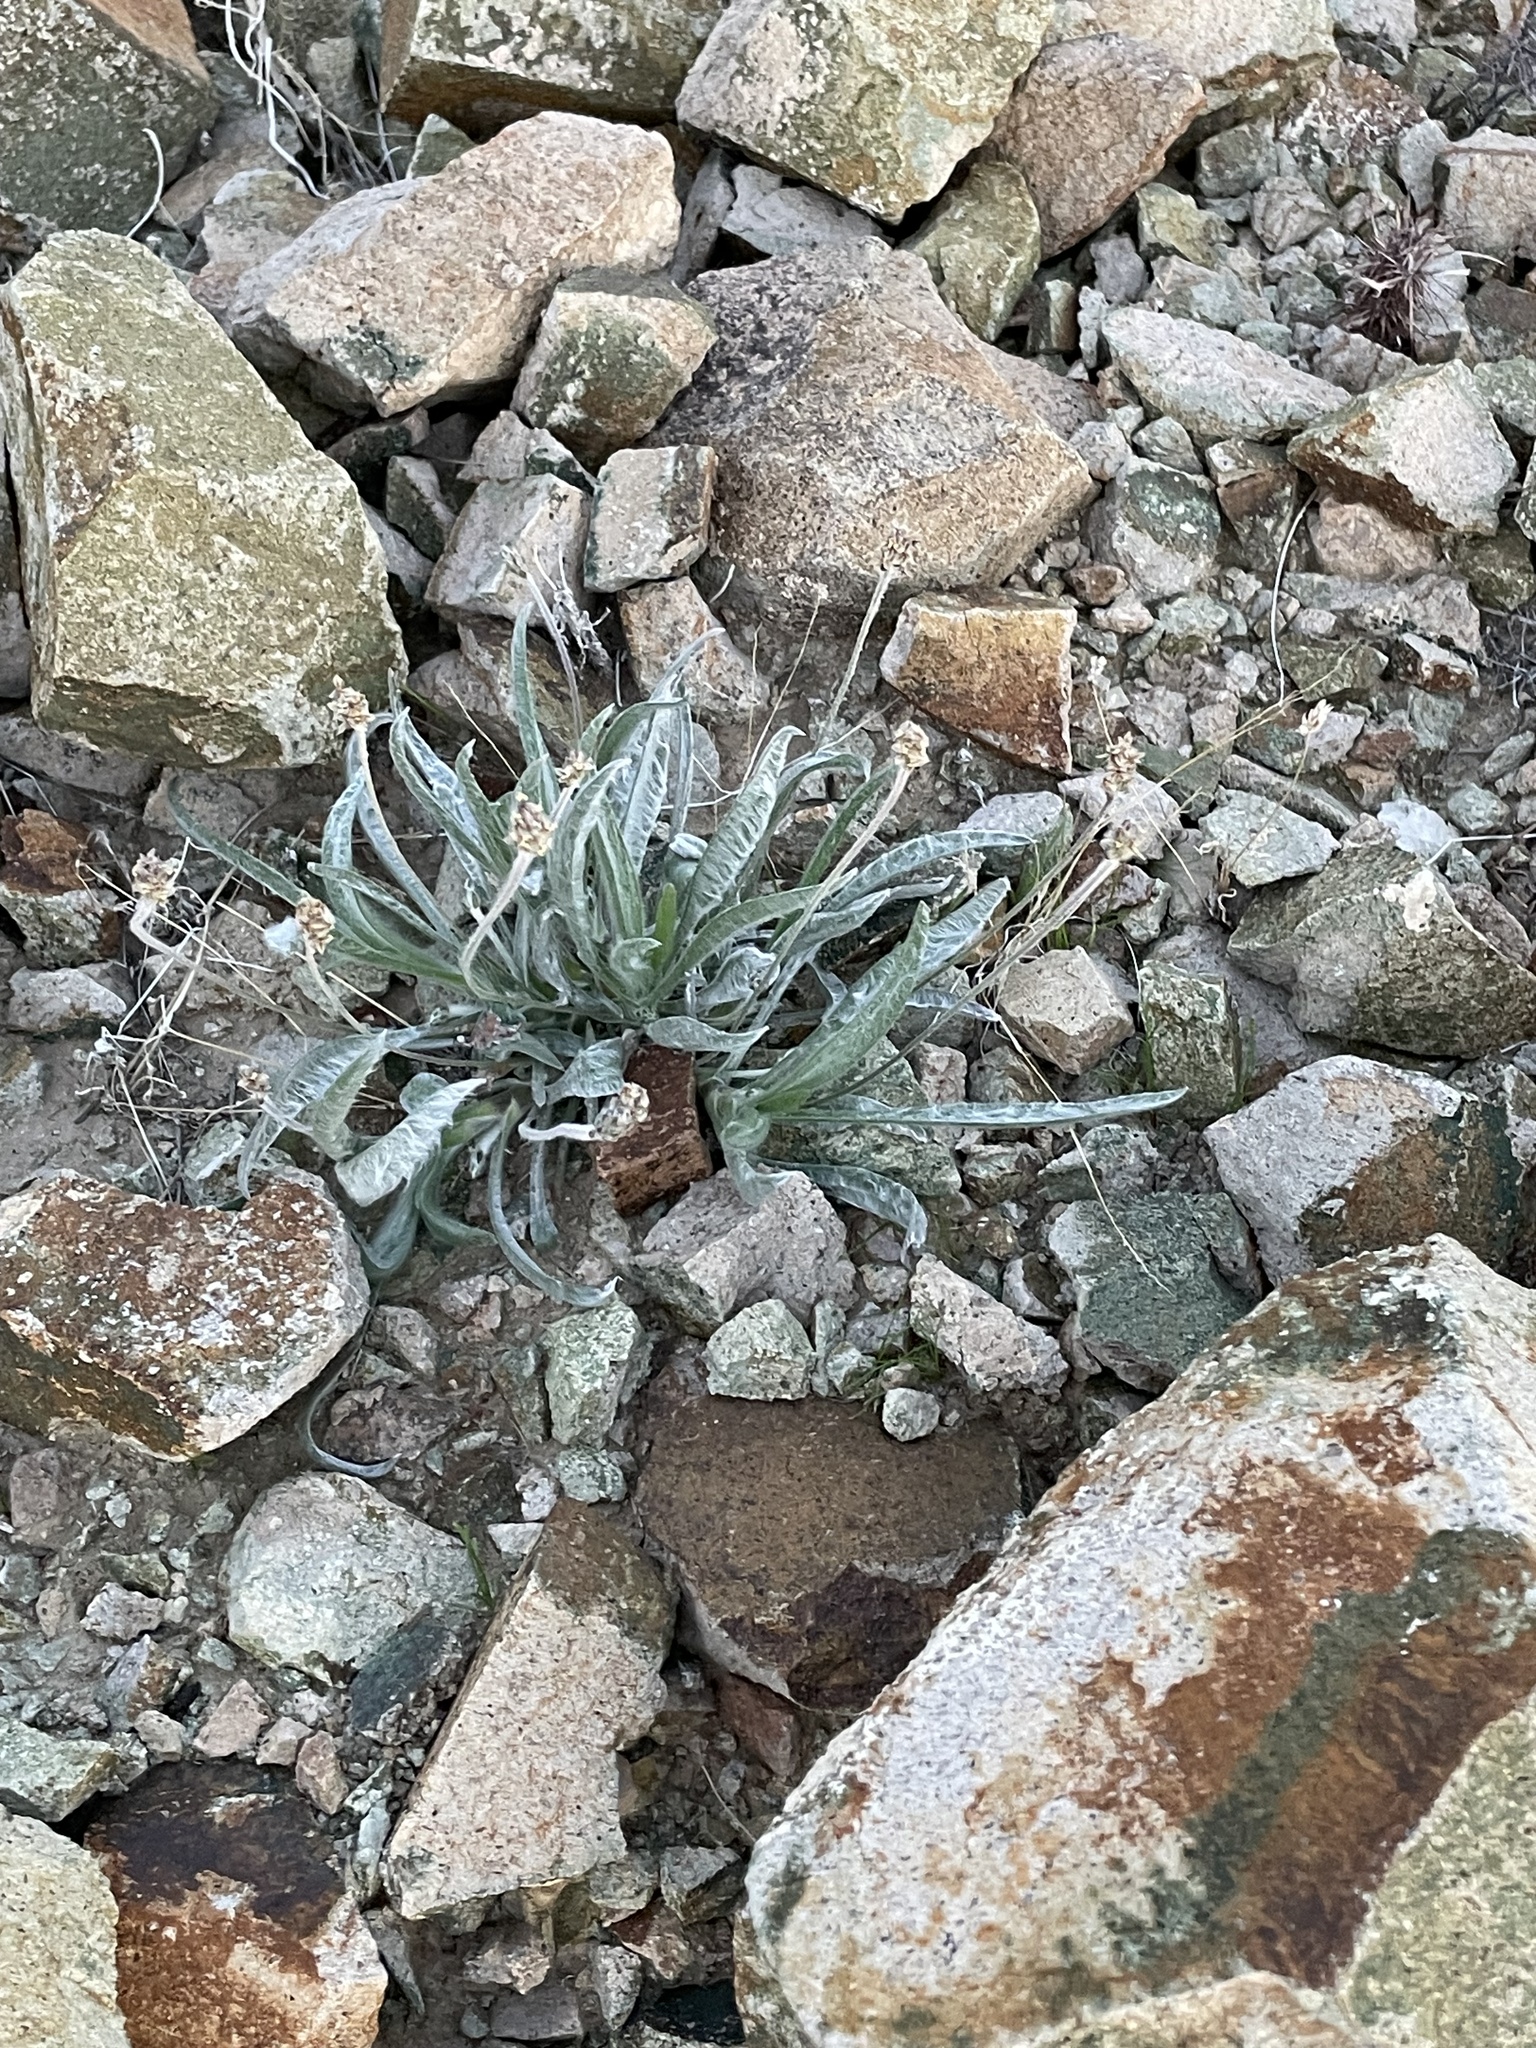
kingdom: Plantae
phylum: Tracheophyta
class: Magnoliopsida
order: Lamiales
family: Plantaginaceae
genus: Plantago
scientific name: Plantago ovata
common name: Blond plantain
